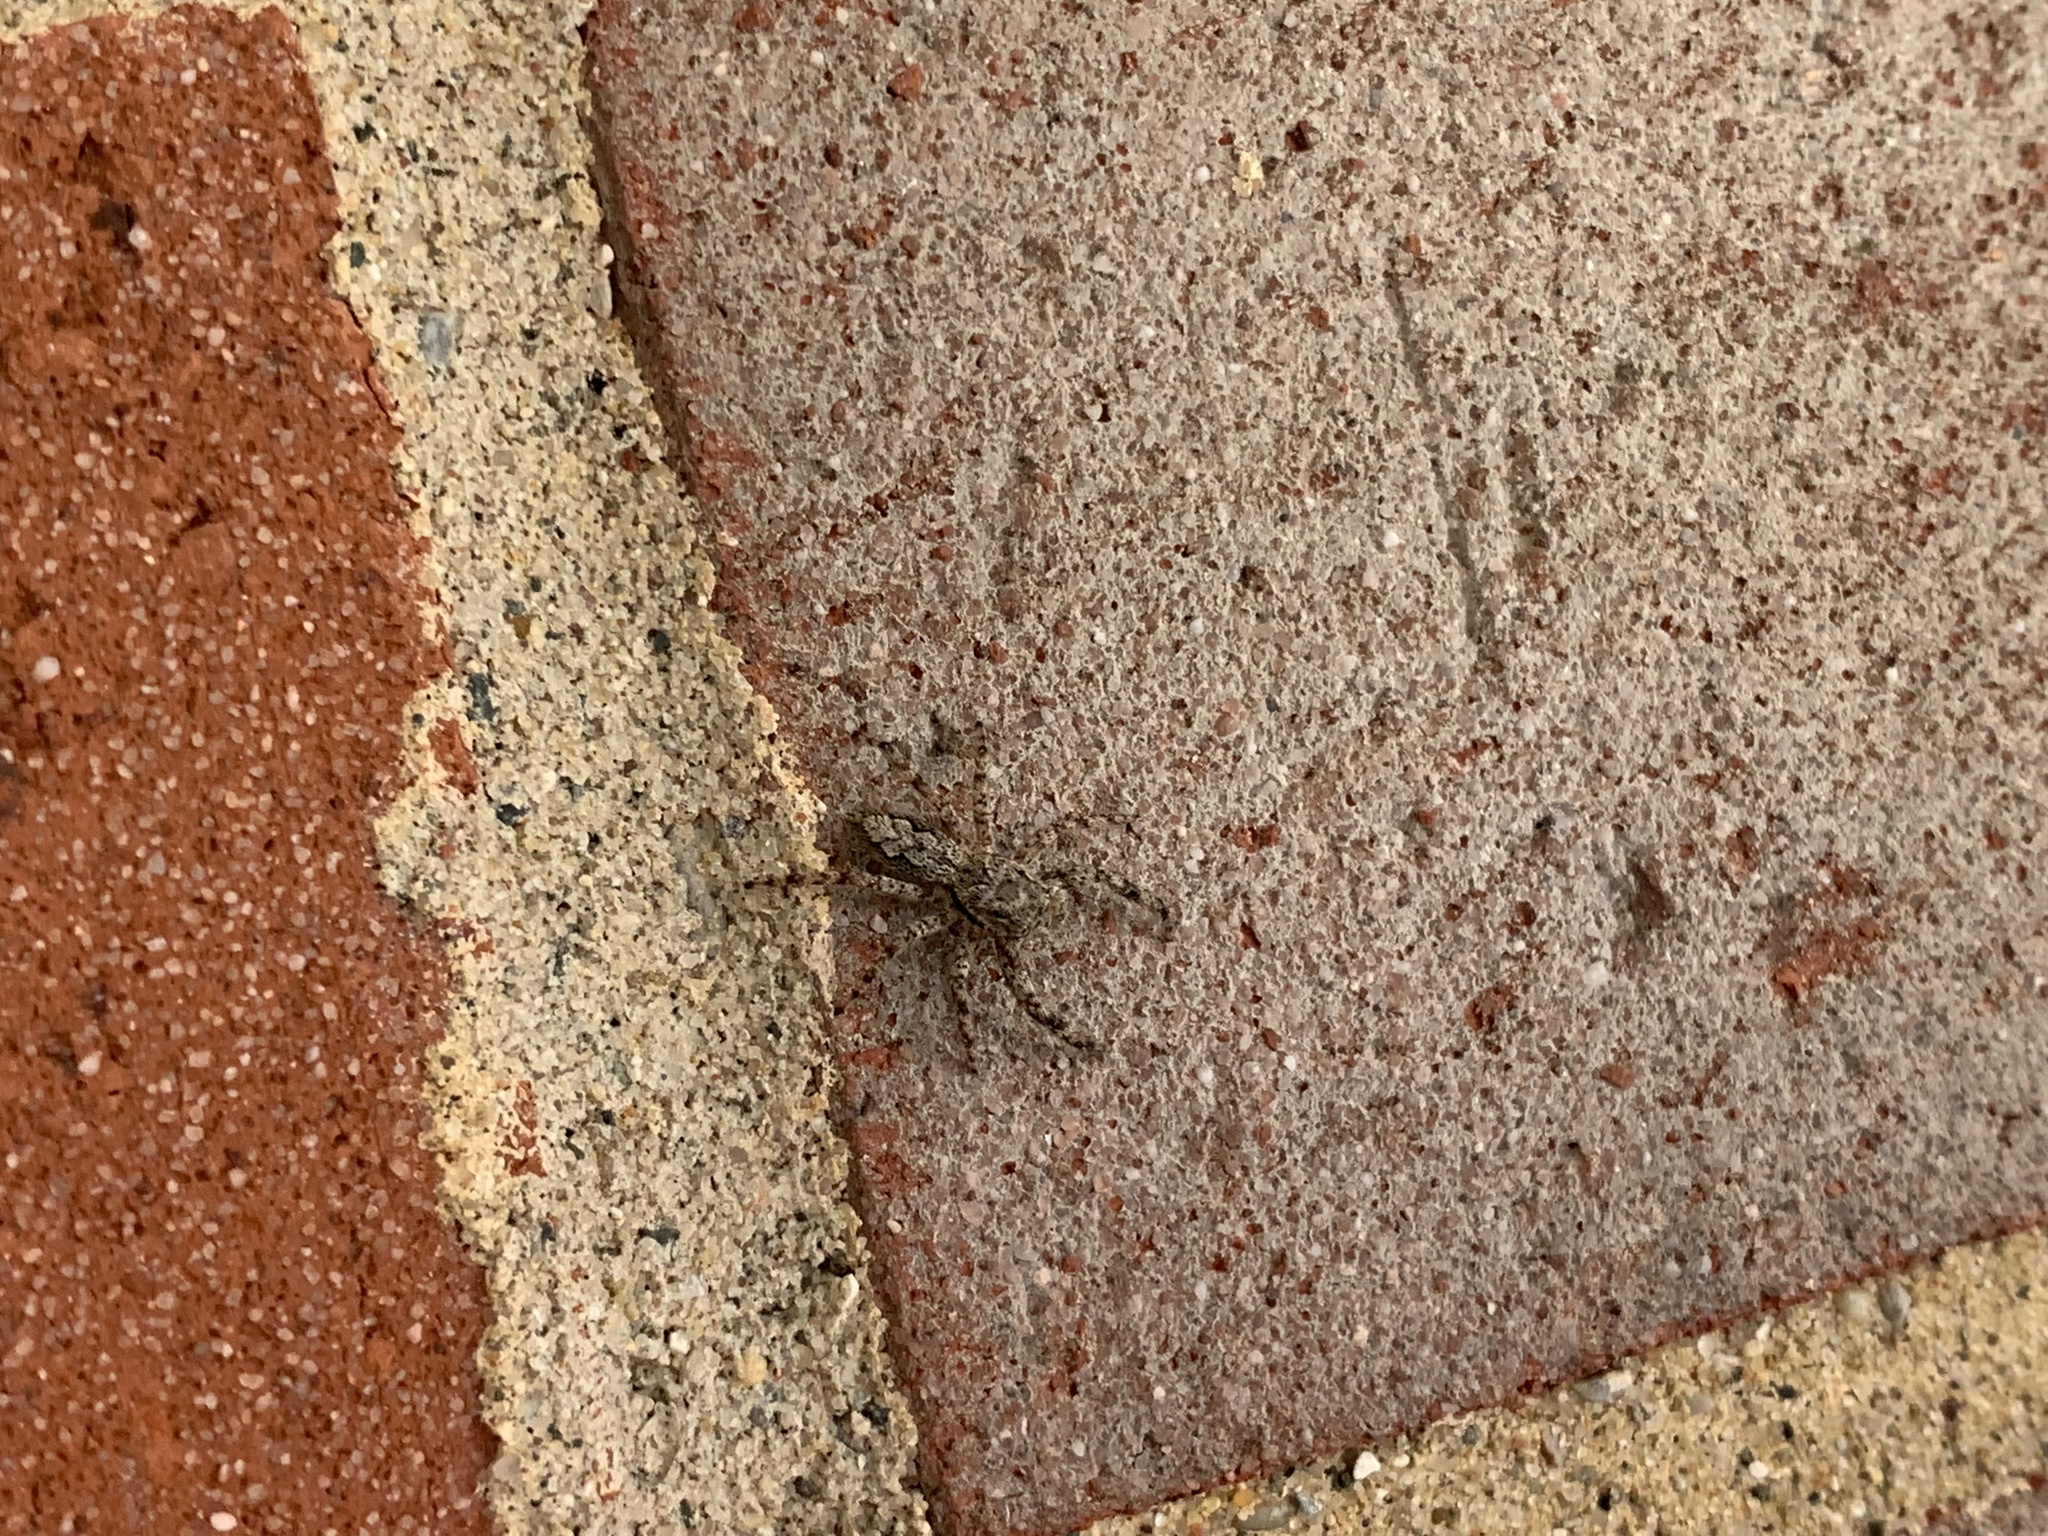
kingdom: Animalia
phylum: Arthropoda
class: Arachnida
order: Araneae
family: Salticidae
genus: Platycryptus
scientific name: Platycryptus undatus
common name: Tan jumping spider
